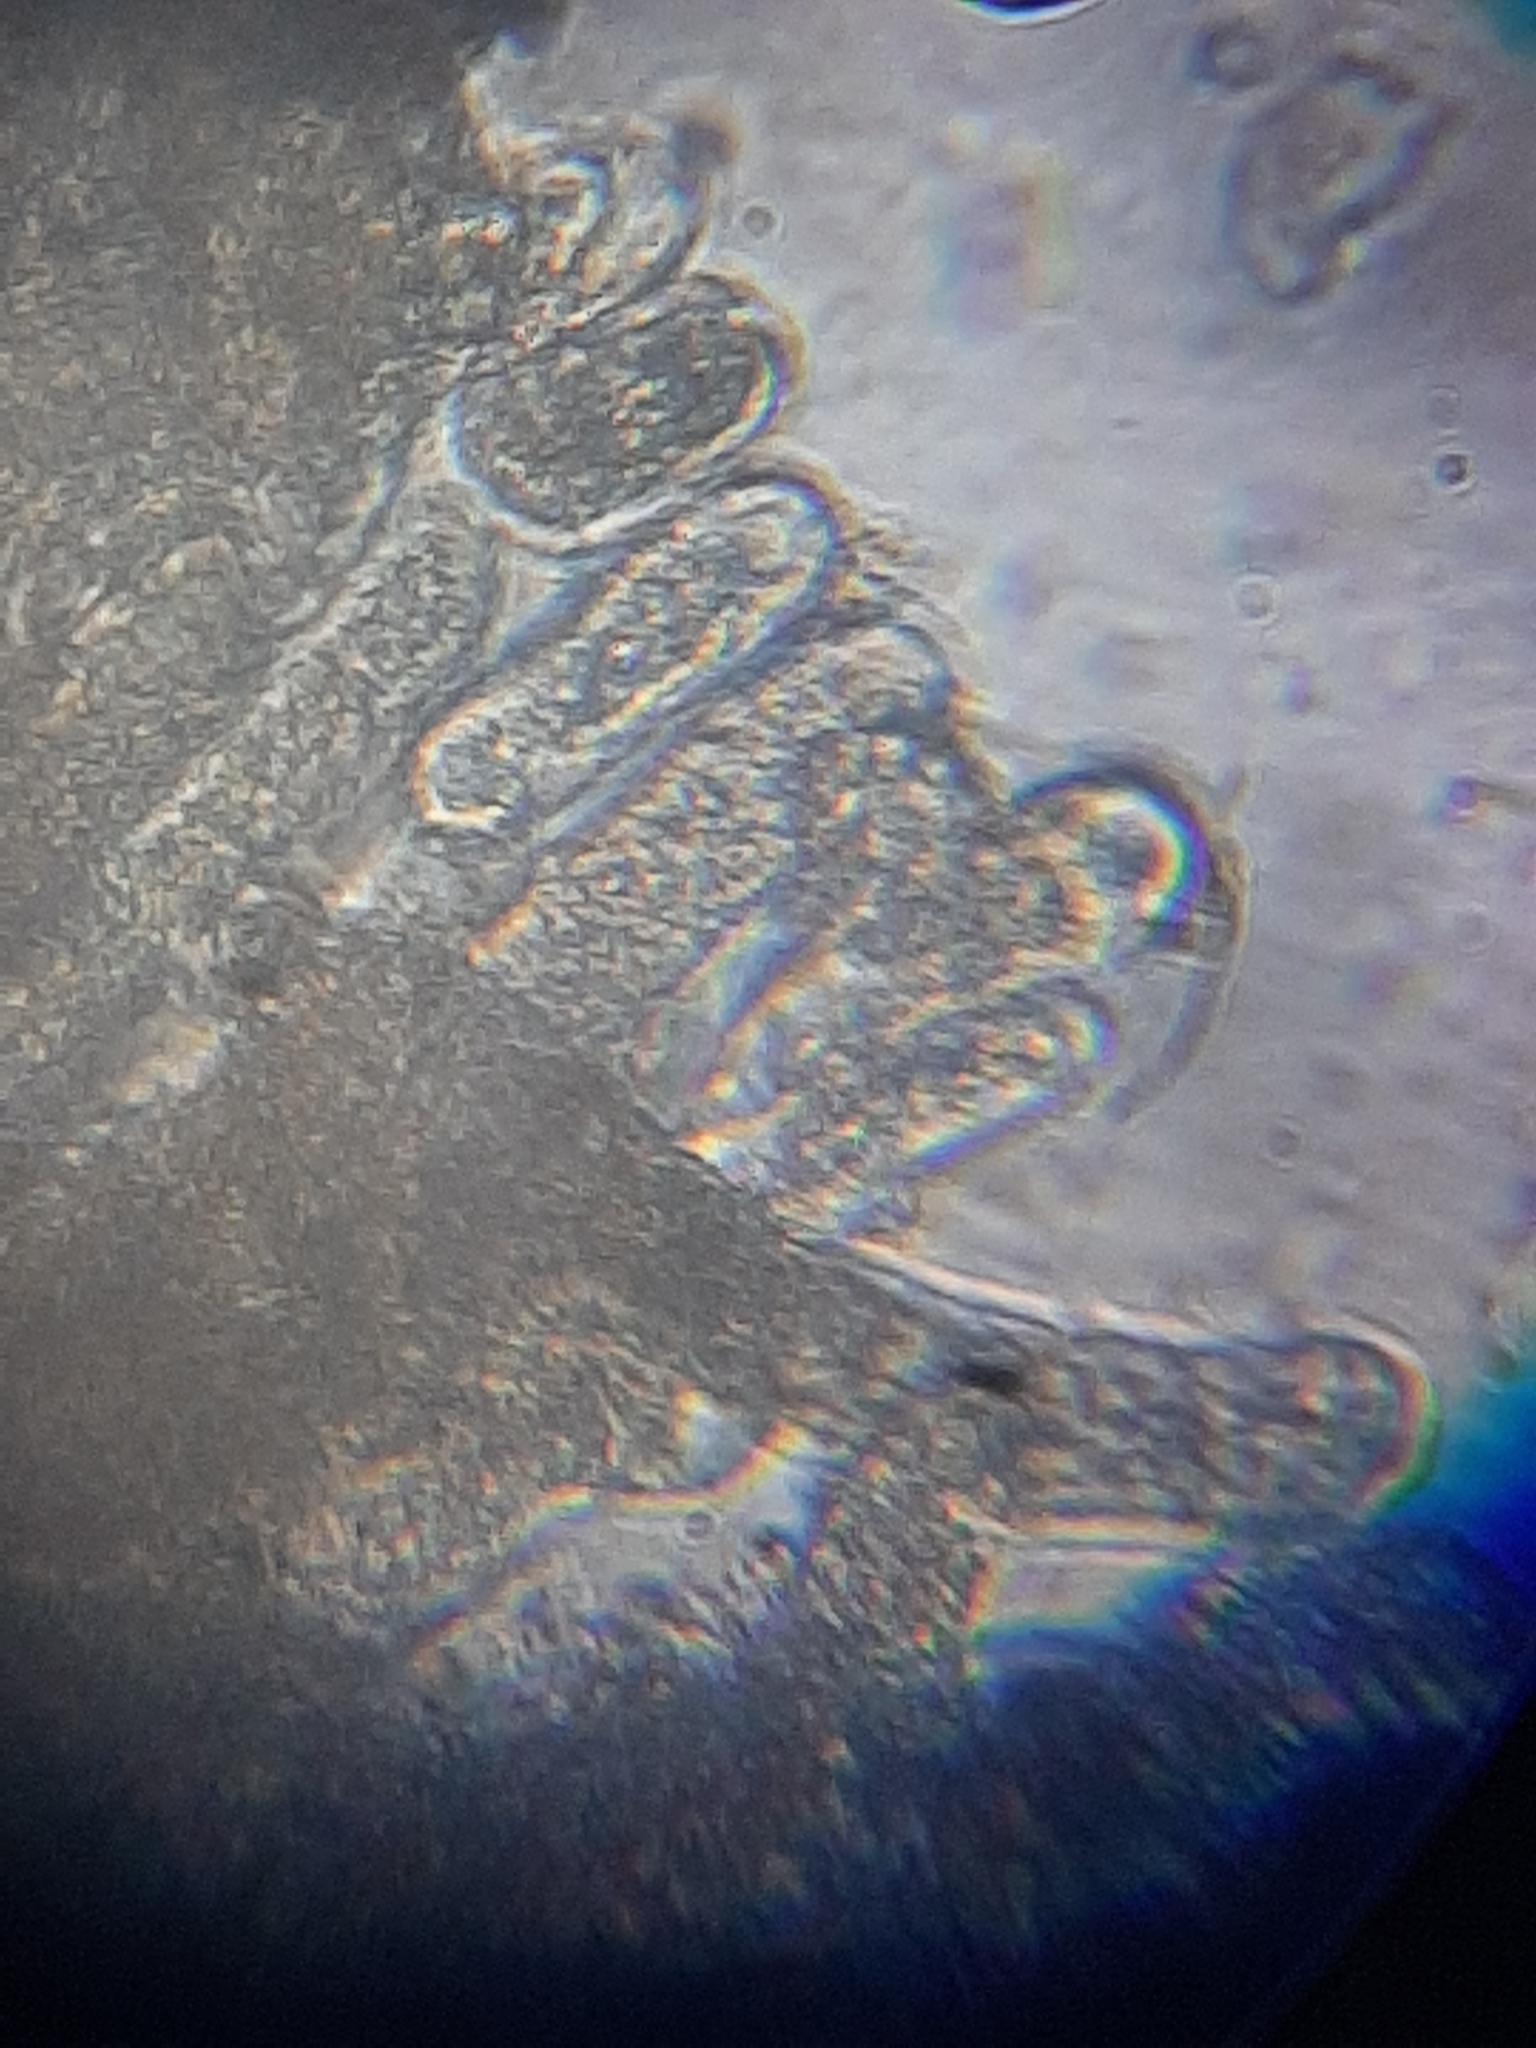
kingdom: Fungi
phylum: Entomophthoromycota
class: Entomophthoromycetes
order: Entomophthorales
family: Entomophthoraceae
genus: Entomophthora
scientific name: Entomophthora
